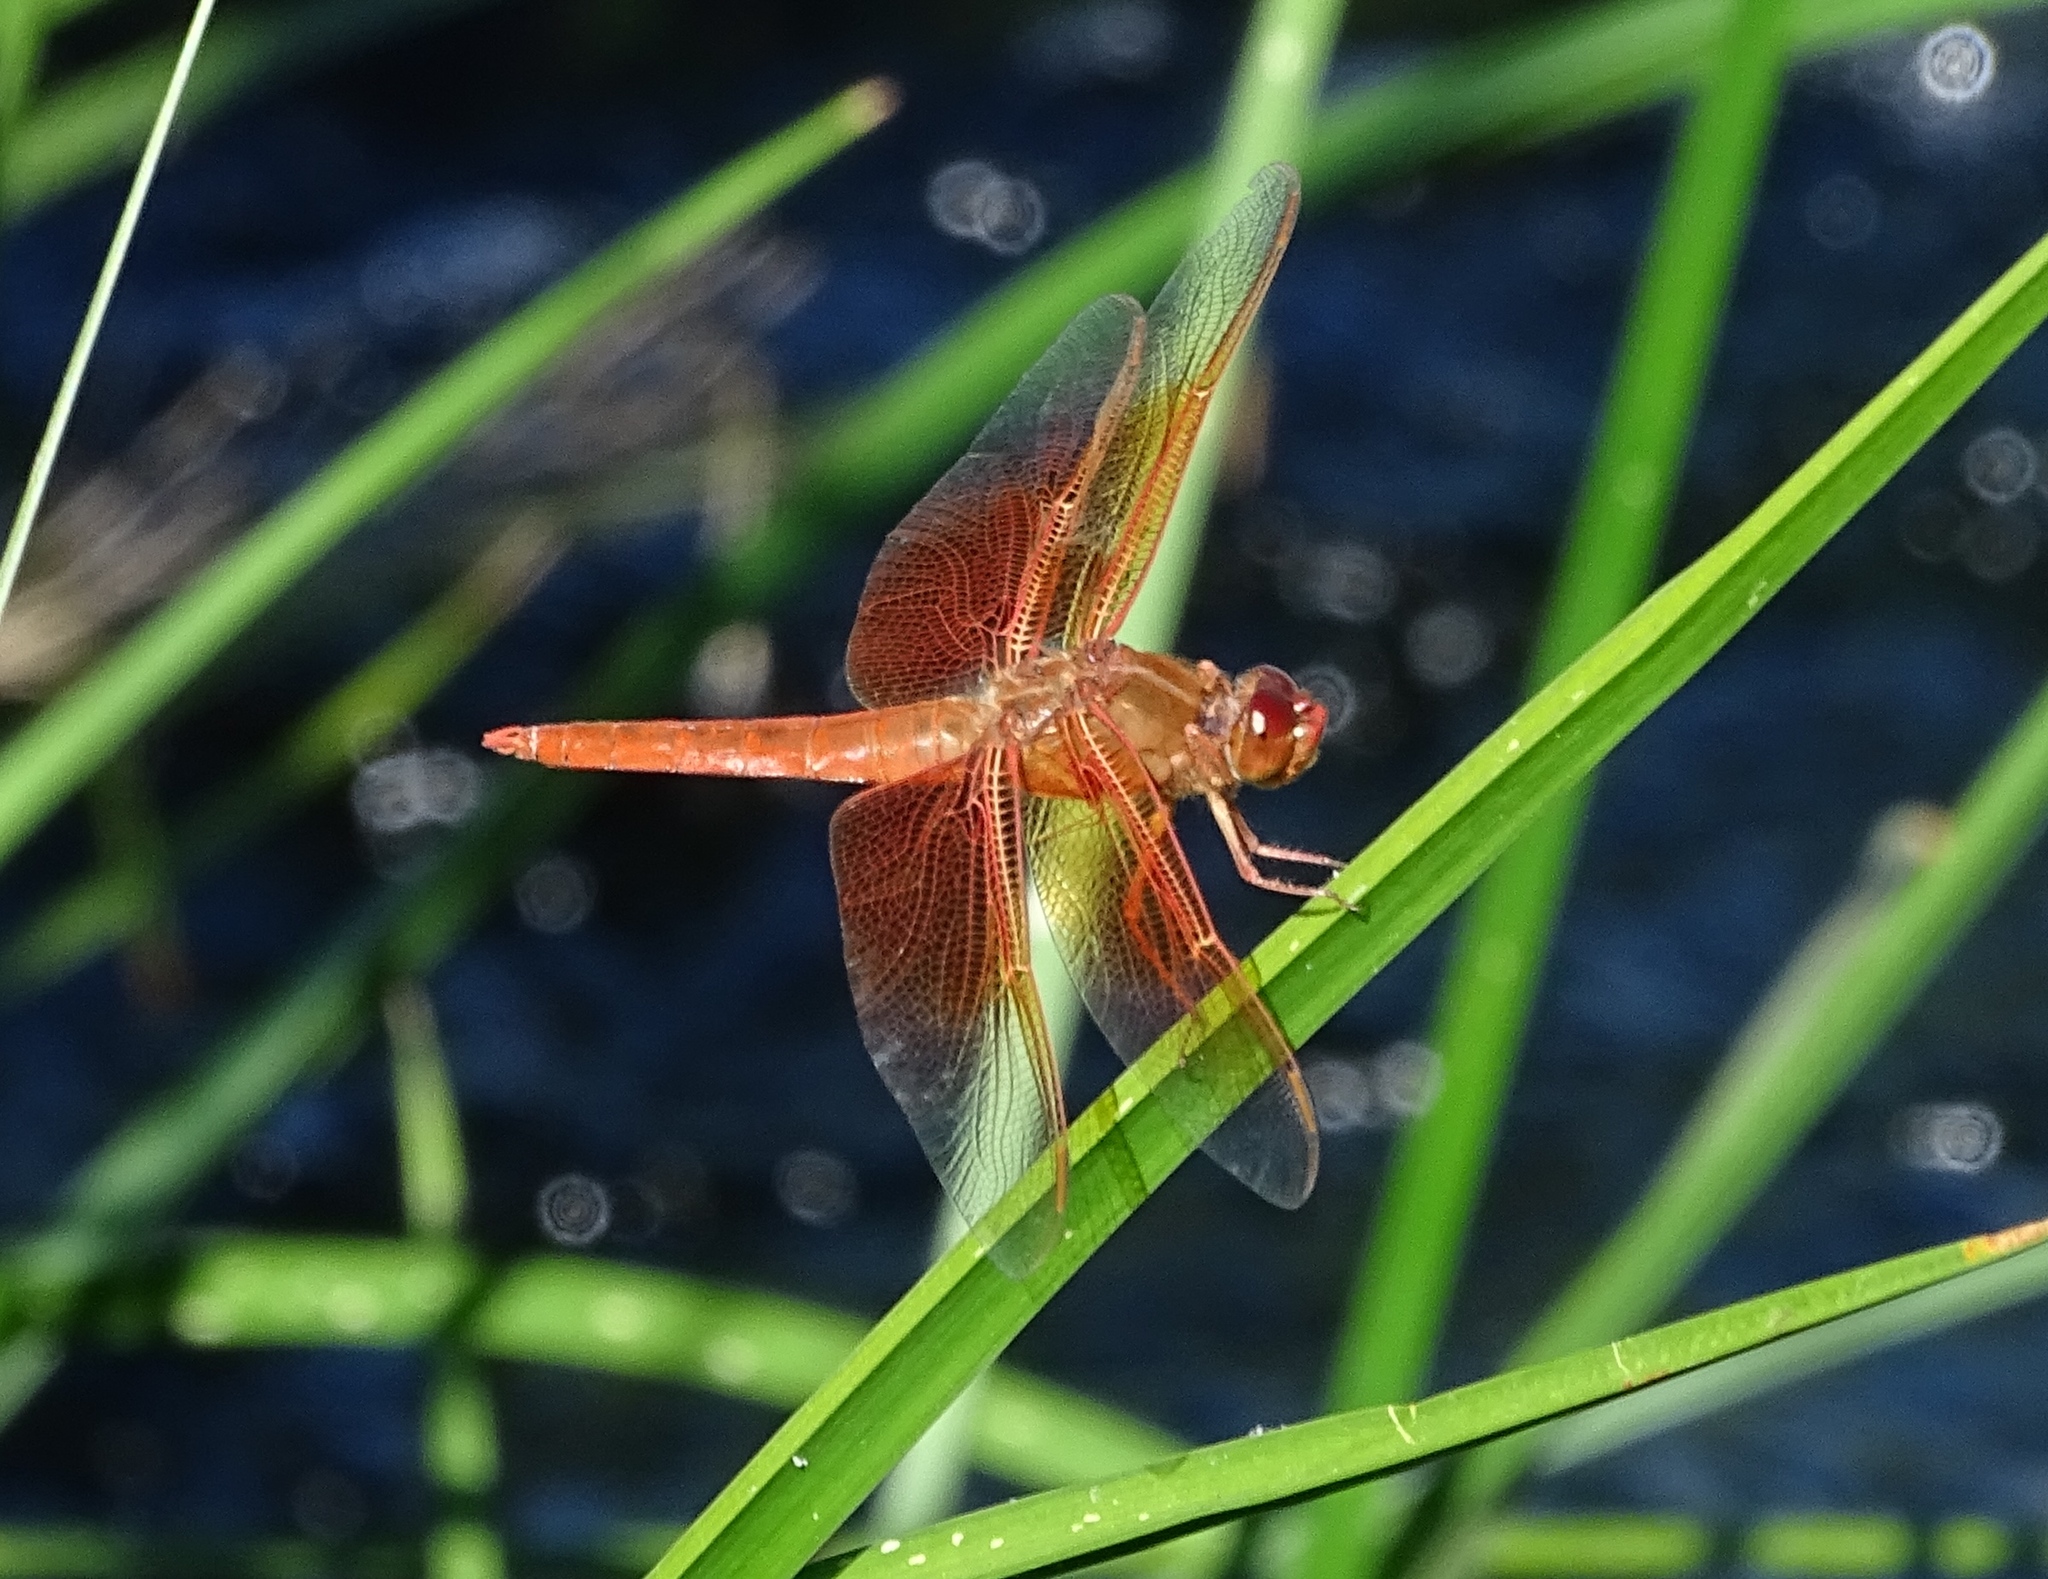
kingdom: Animalia
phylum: Arthropoda
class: Insecta
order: Odonata
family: Libellulidae
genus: Libellula
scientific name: Libellula saturata
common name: Flame skimmer
